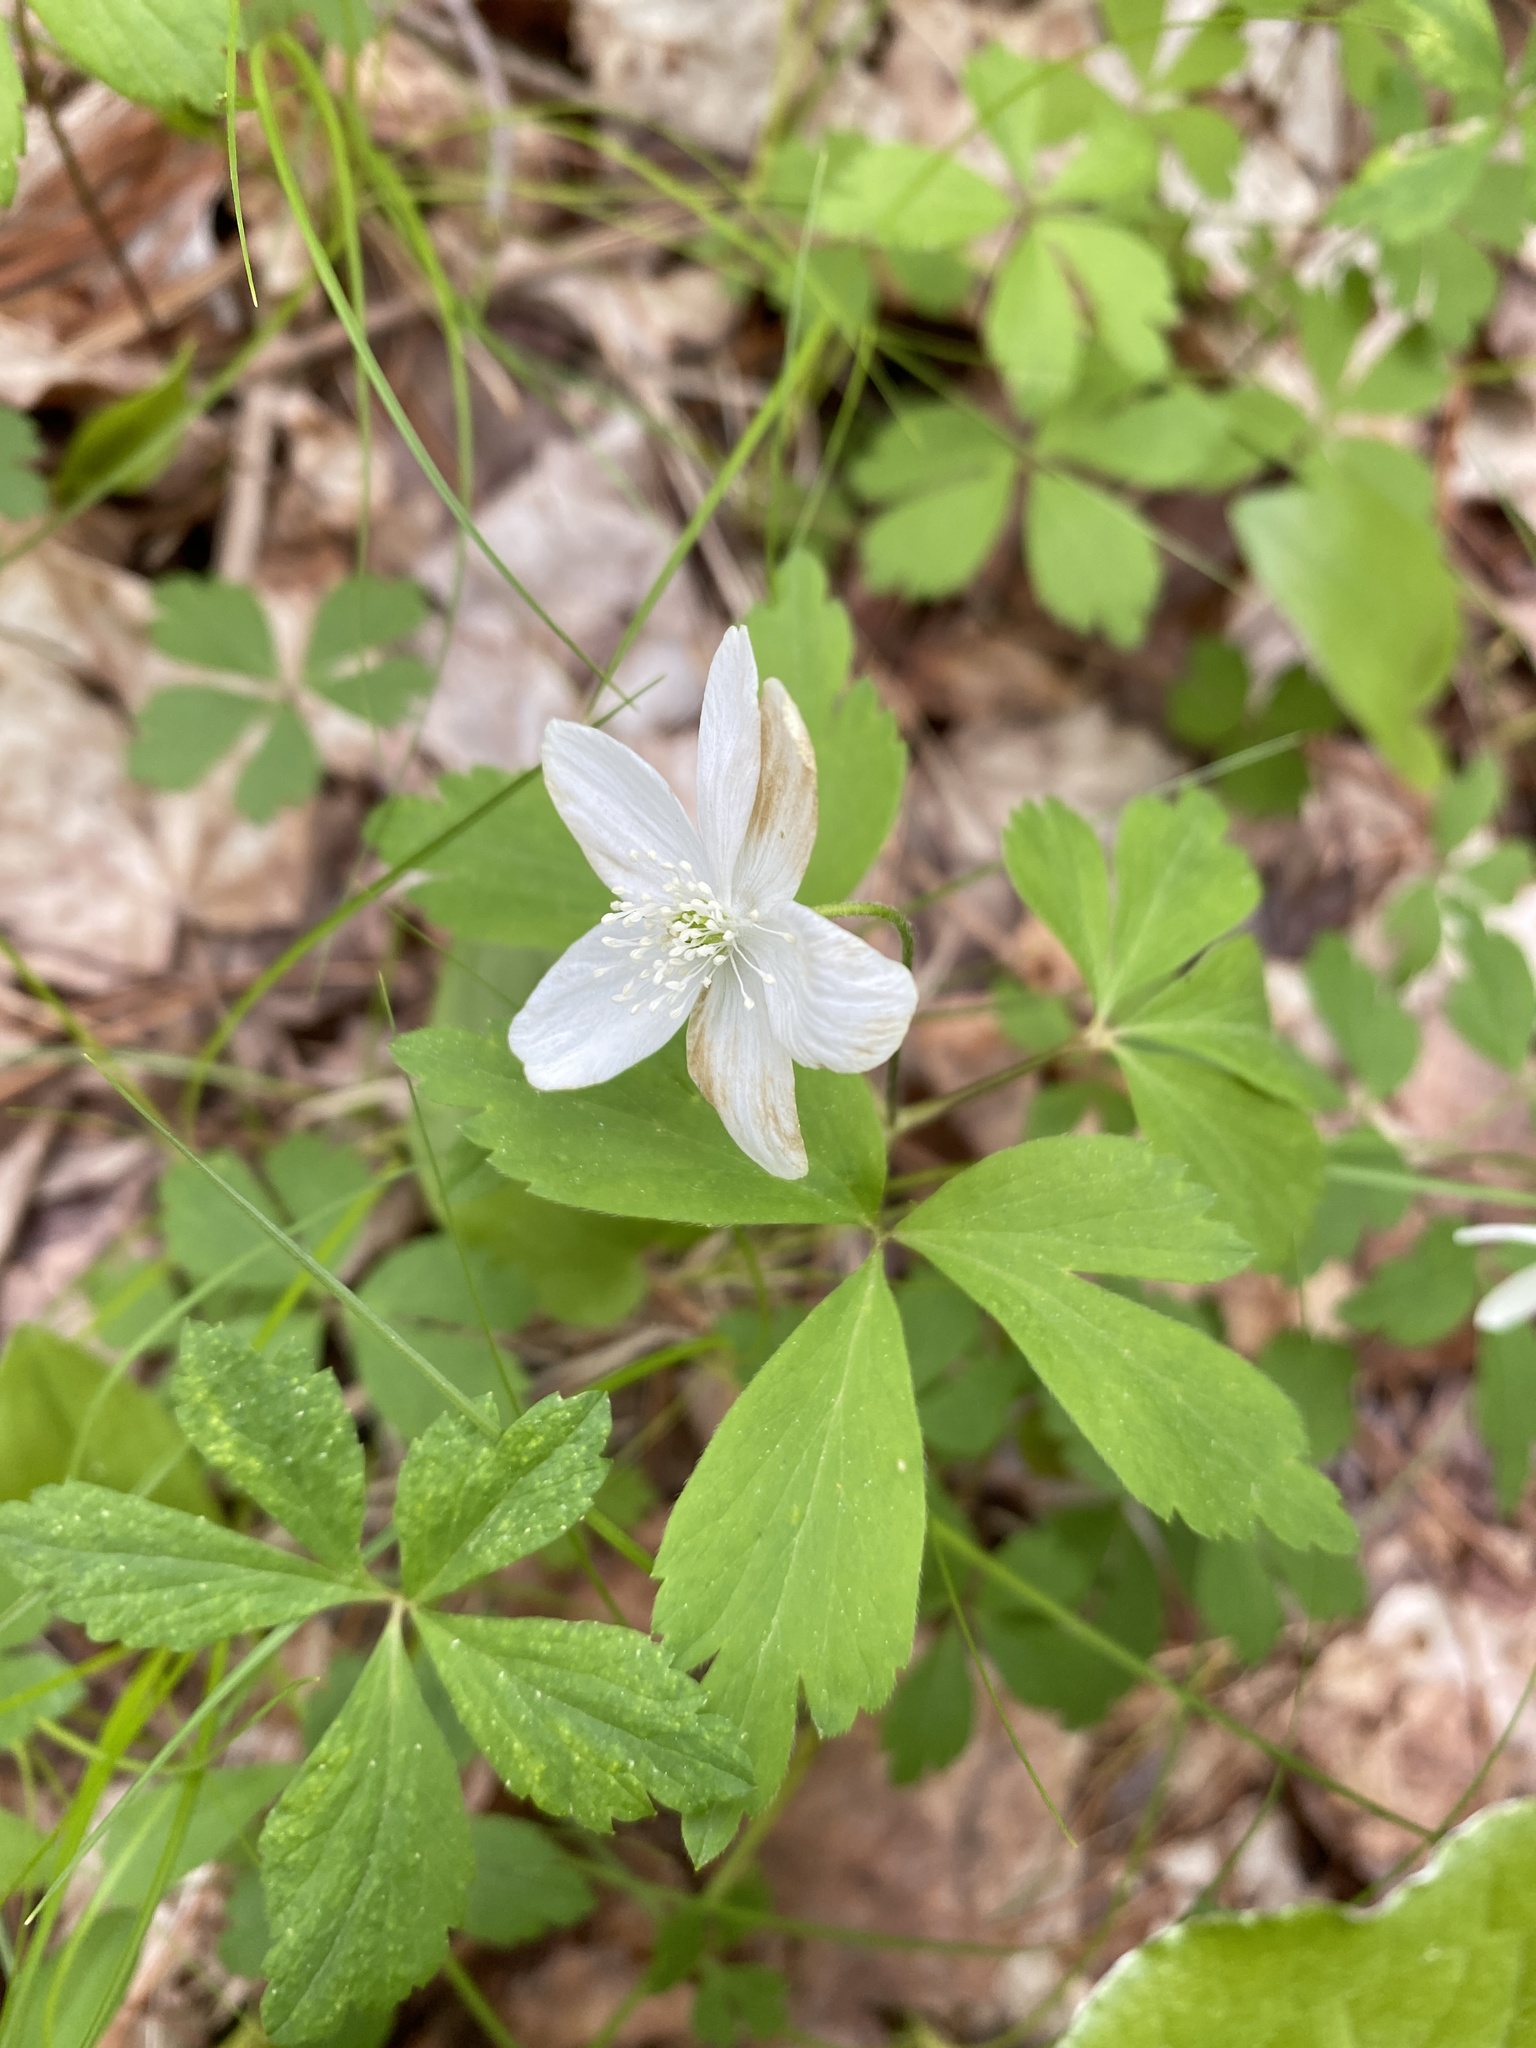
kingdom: Plantae
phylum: Tracheophyta
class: Magnoliopsida
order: Ranunculales
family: Ranunculaceae
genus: Anemone
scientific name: Anemone quinquefolia
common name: Wood anemone
